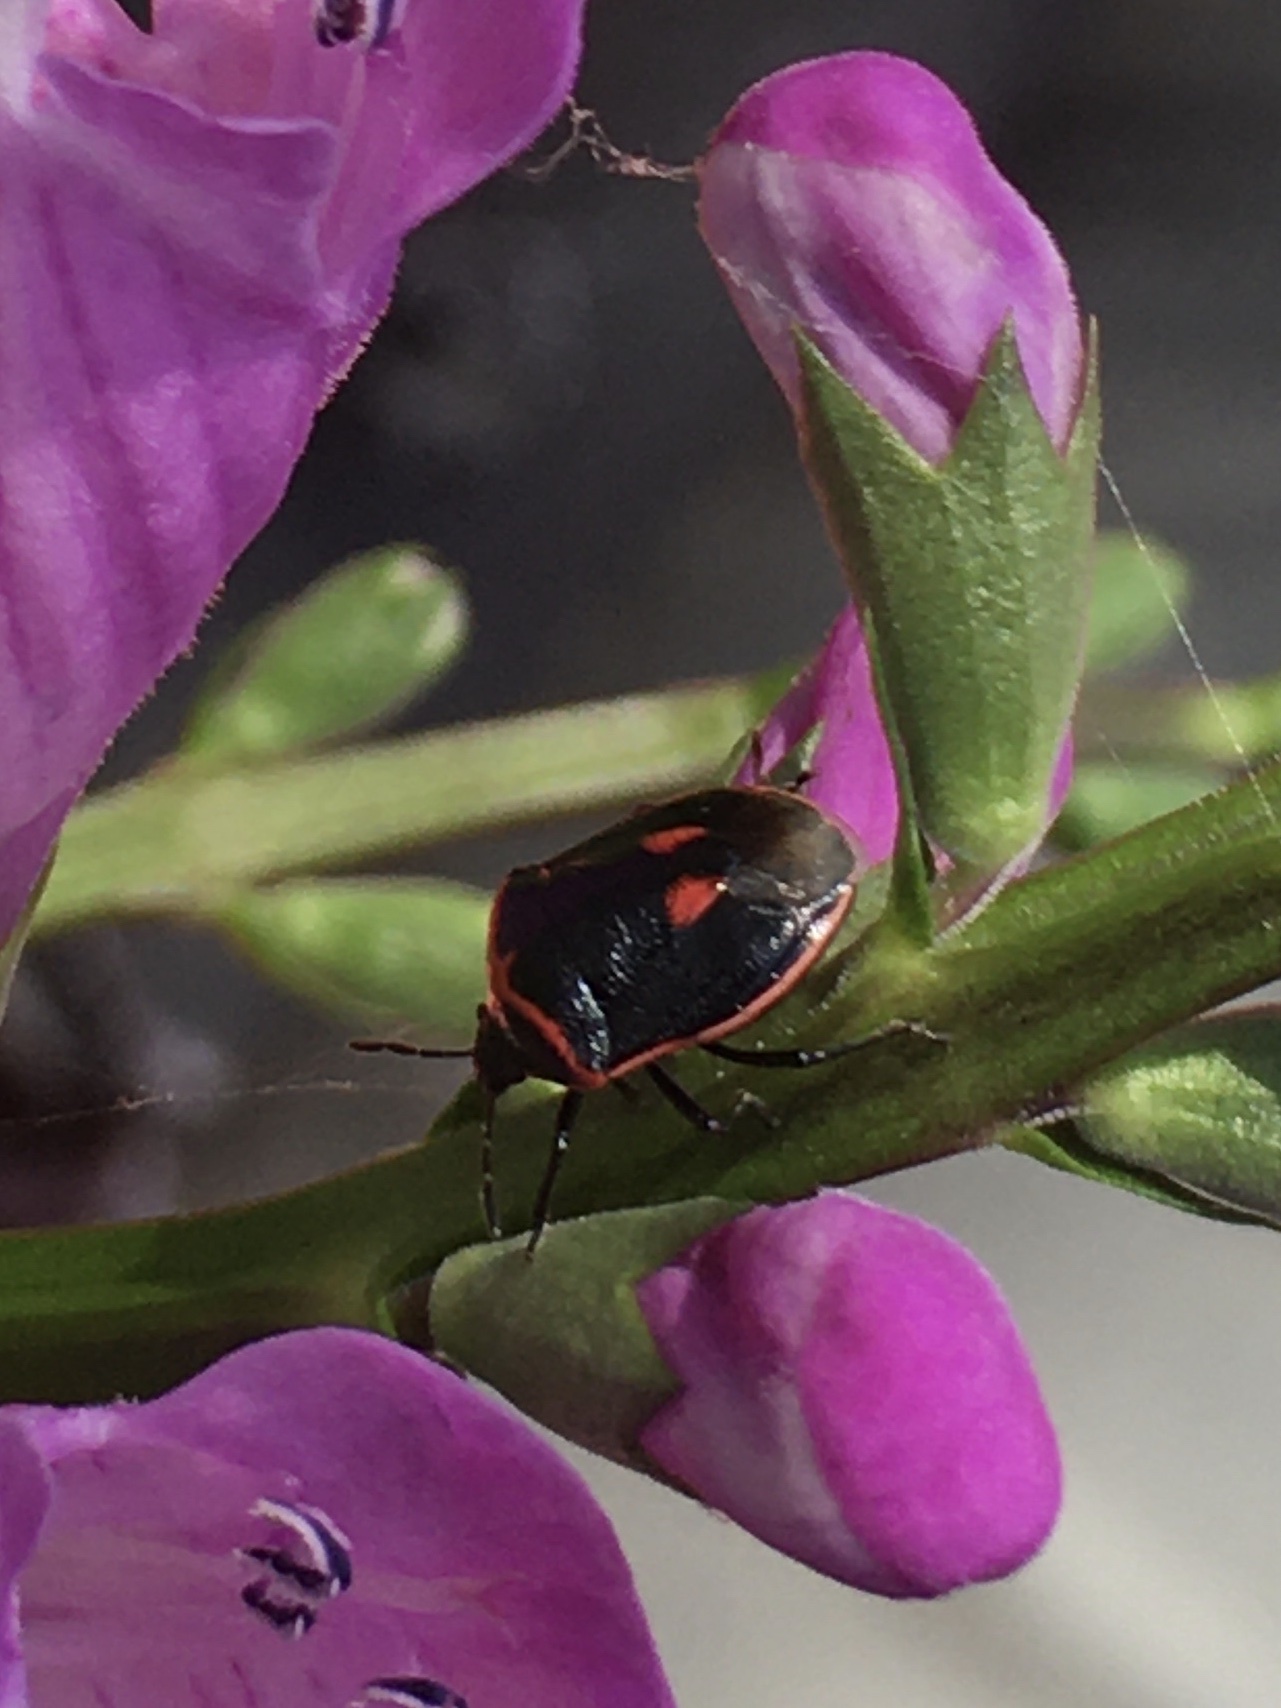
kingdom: Animalia
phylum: Arthropoda
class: Insecta
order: Hemiptera
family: Pentatomidae
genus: Cosmopepla
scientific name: Cosmopepla lintneriana
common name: Twice-stabbed stink bug
